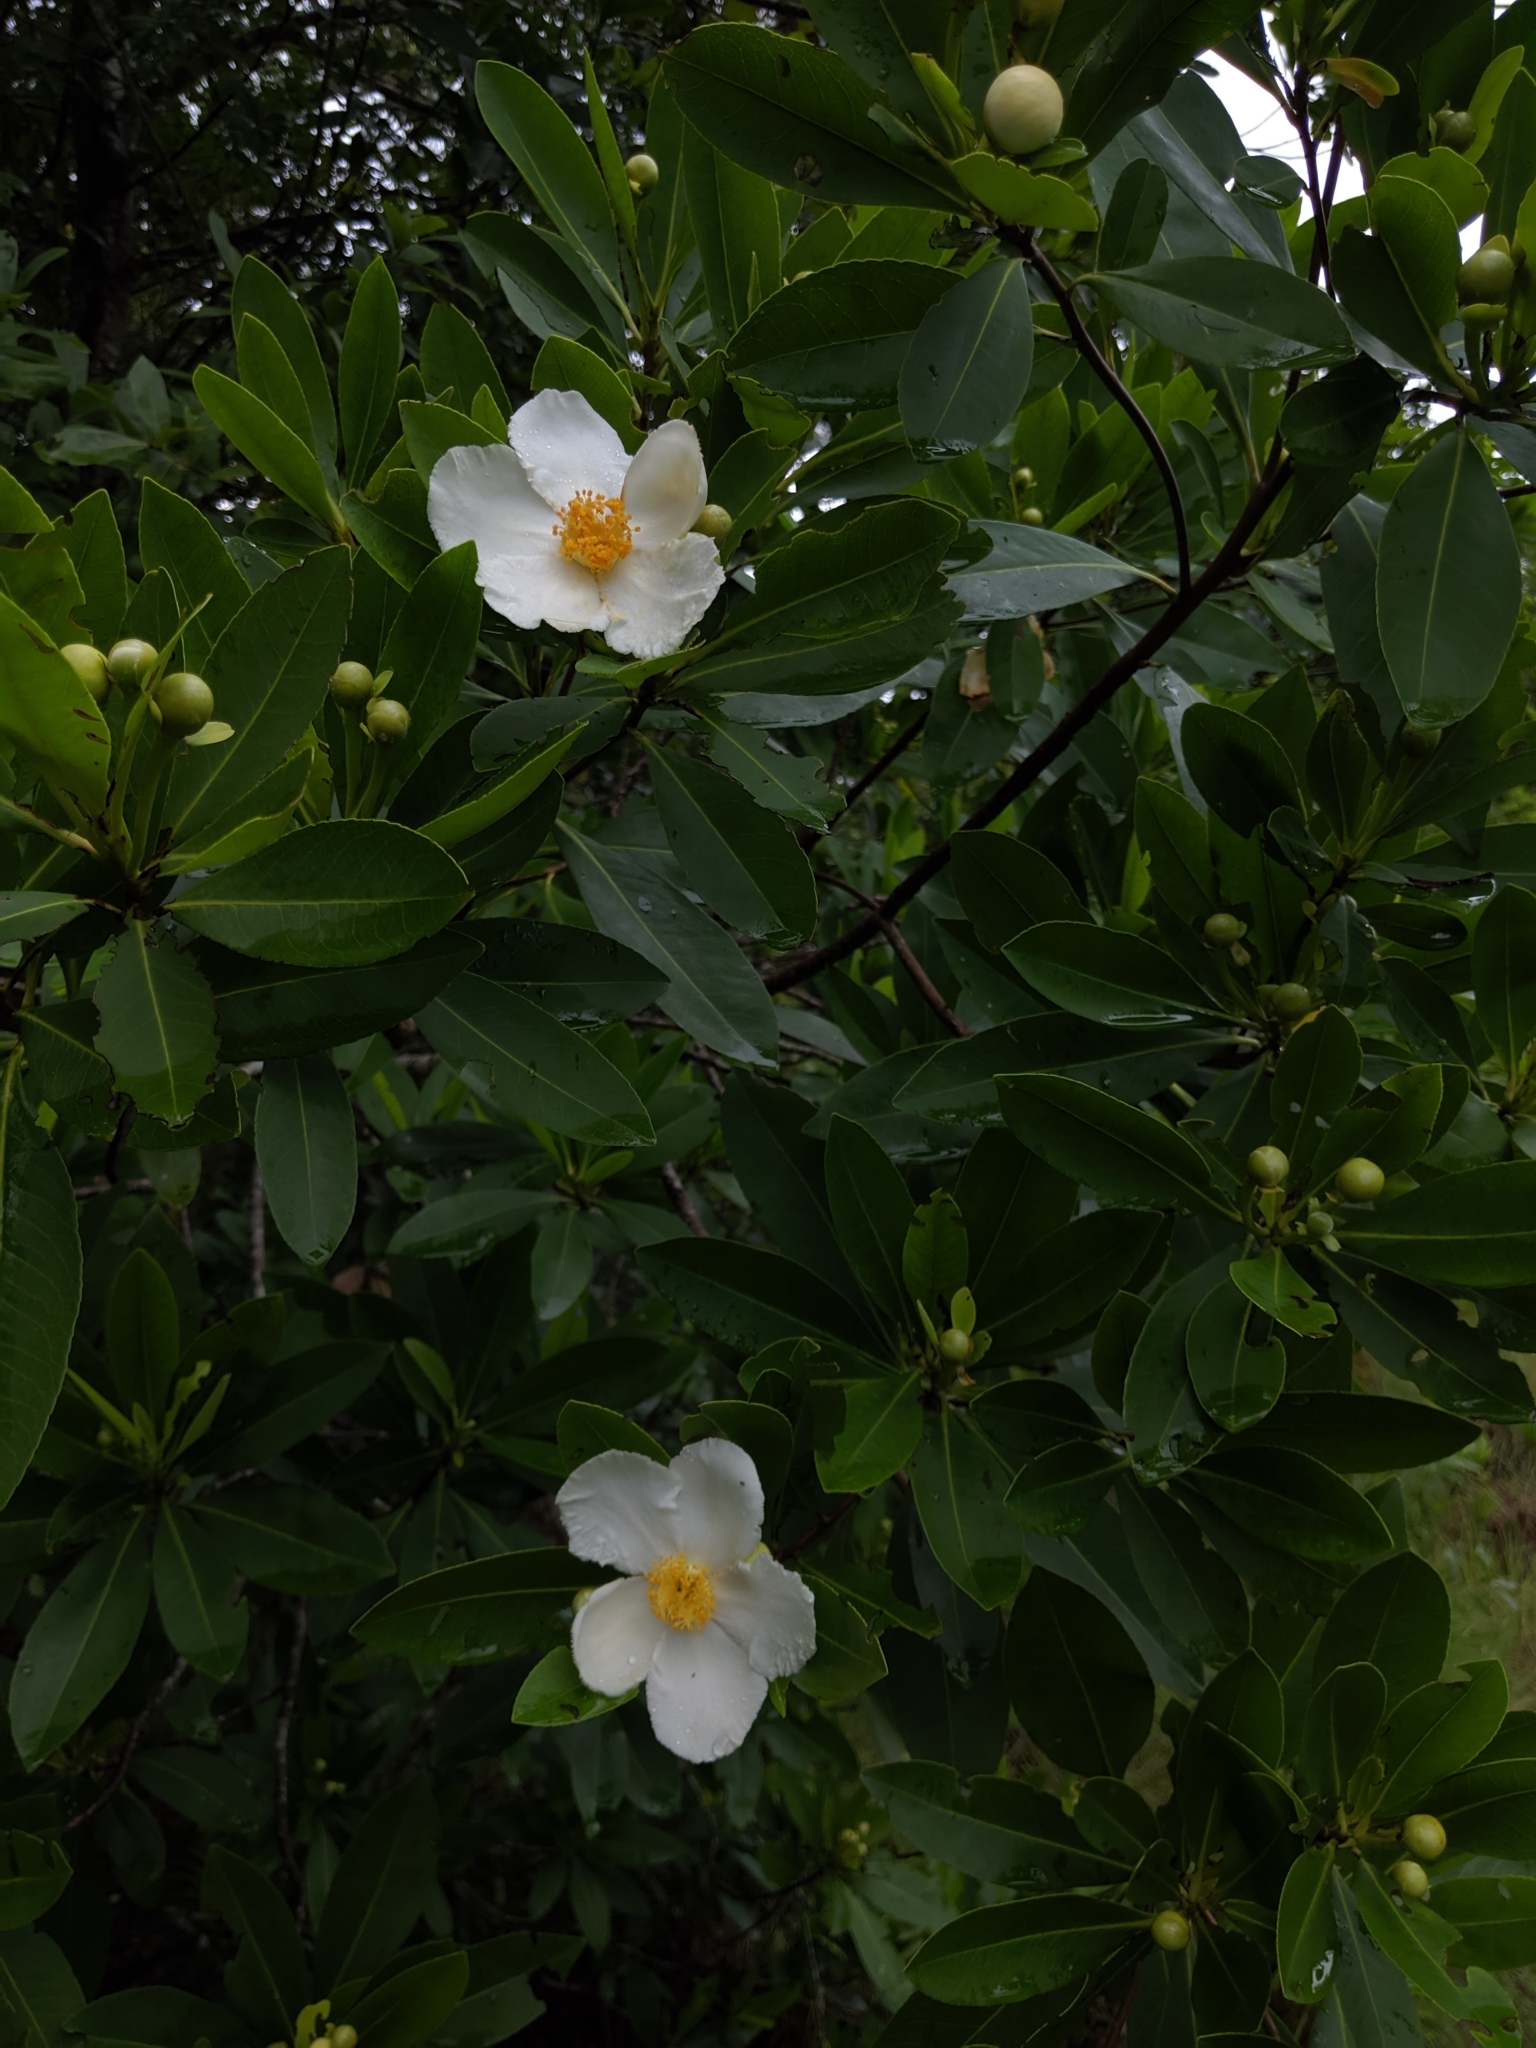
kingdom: Plantae
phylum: Tracheophyta
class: Magnoliopsida
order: Ericales
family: Theaceae
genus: Gordonia
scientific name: Gordonia lasianthus
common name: Loblolly bay
